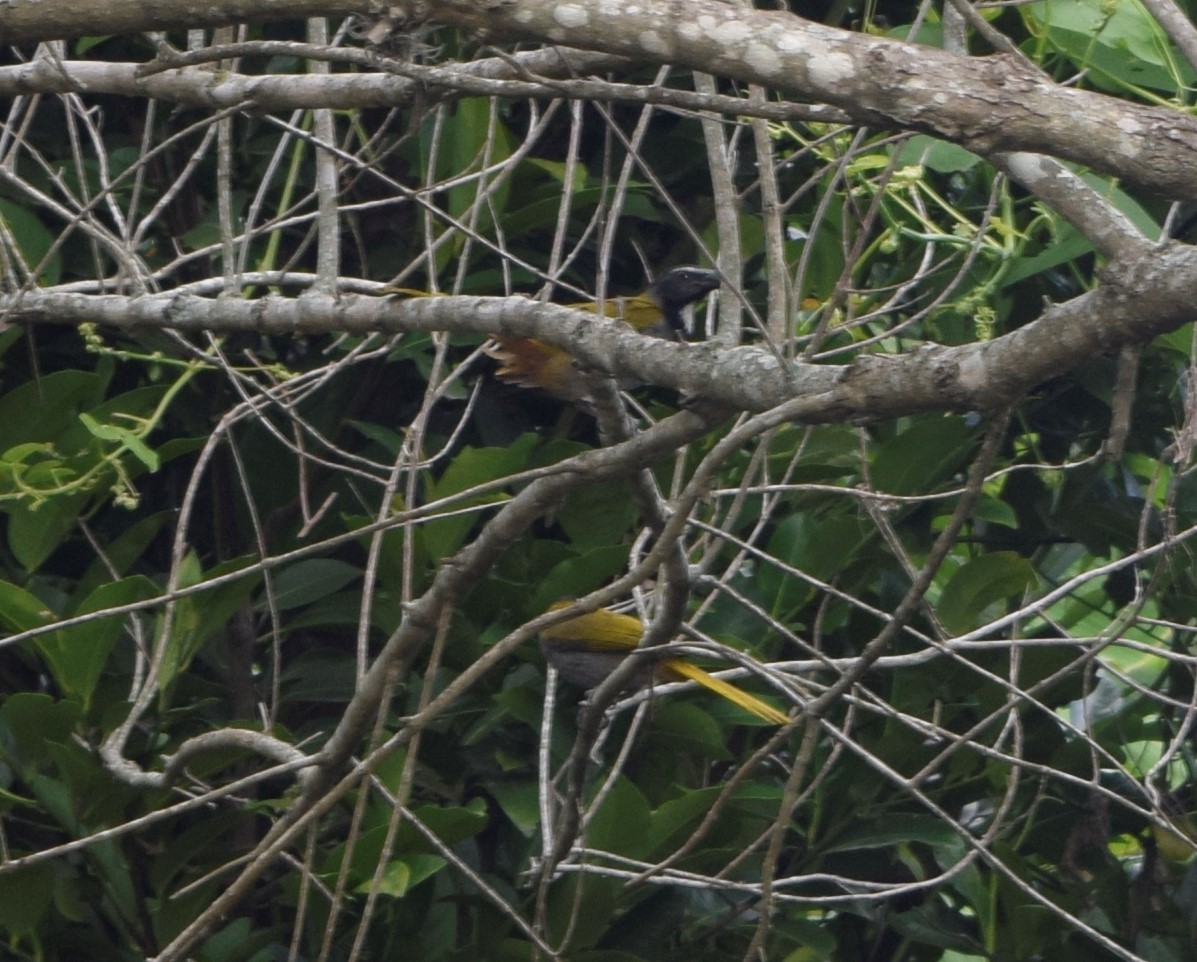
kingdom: Animalia
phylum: Chordata
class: Aves
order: Passeriformes
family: Thraupidae
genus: Saltator
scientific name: Saltator atriceps
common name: Black-headed saltator
